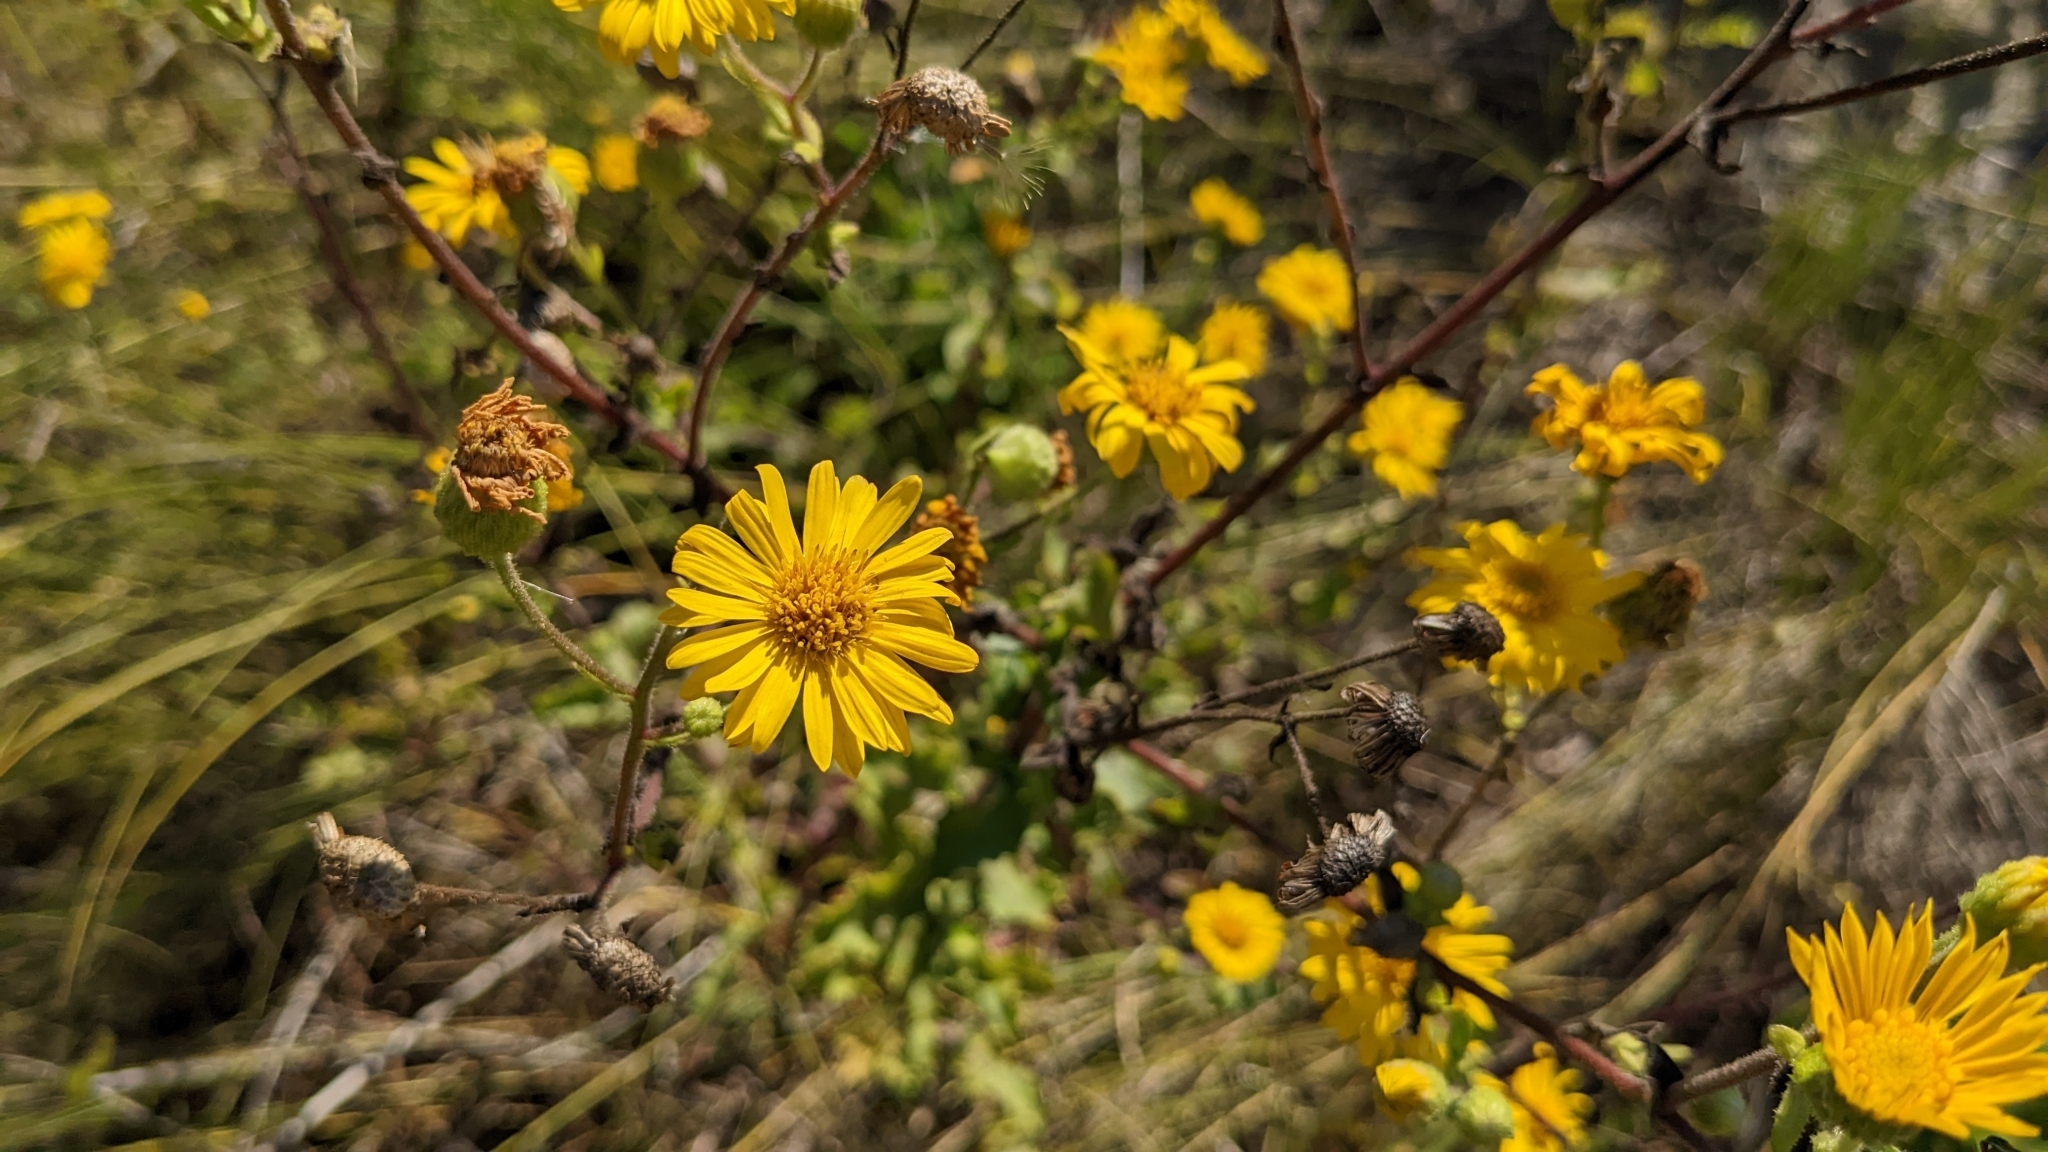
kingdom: Plantae
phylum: Tracheophyta
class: Magnoliopsida
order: Asterales
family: Asteraceae
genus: Heterotheca
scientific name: Heterotheca subaxillaris
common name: Camphorweed
